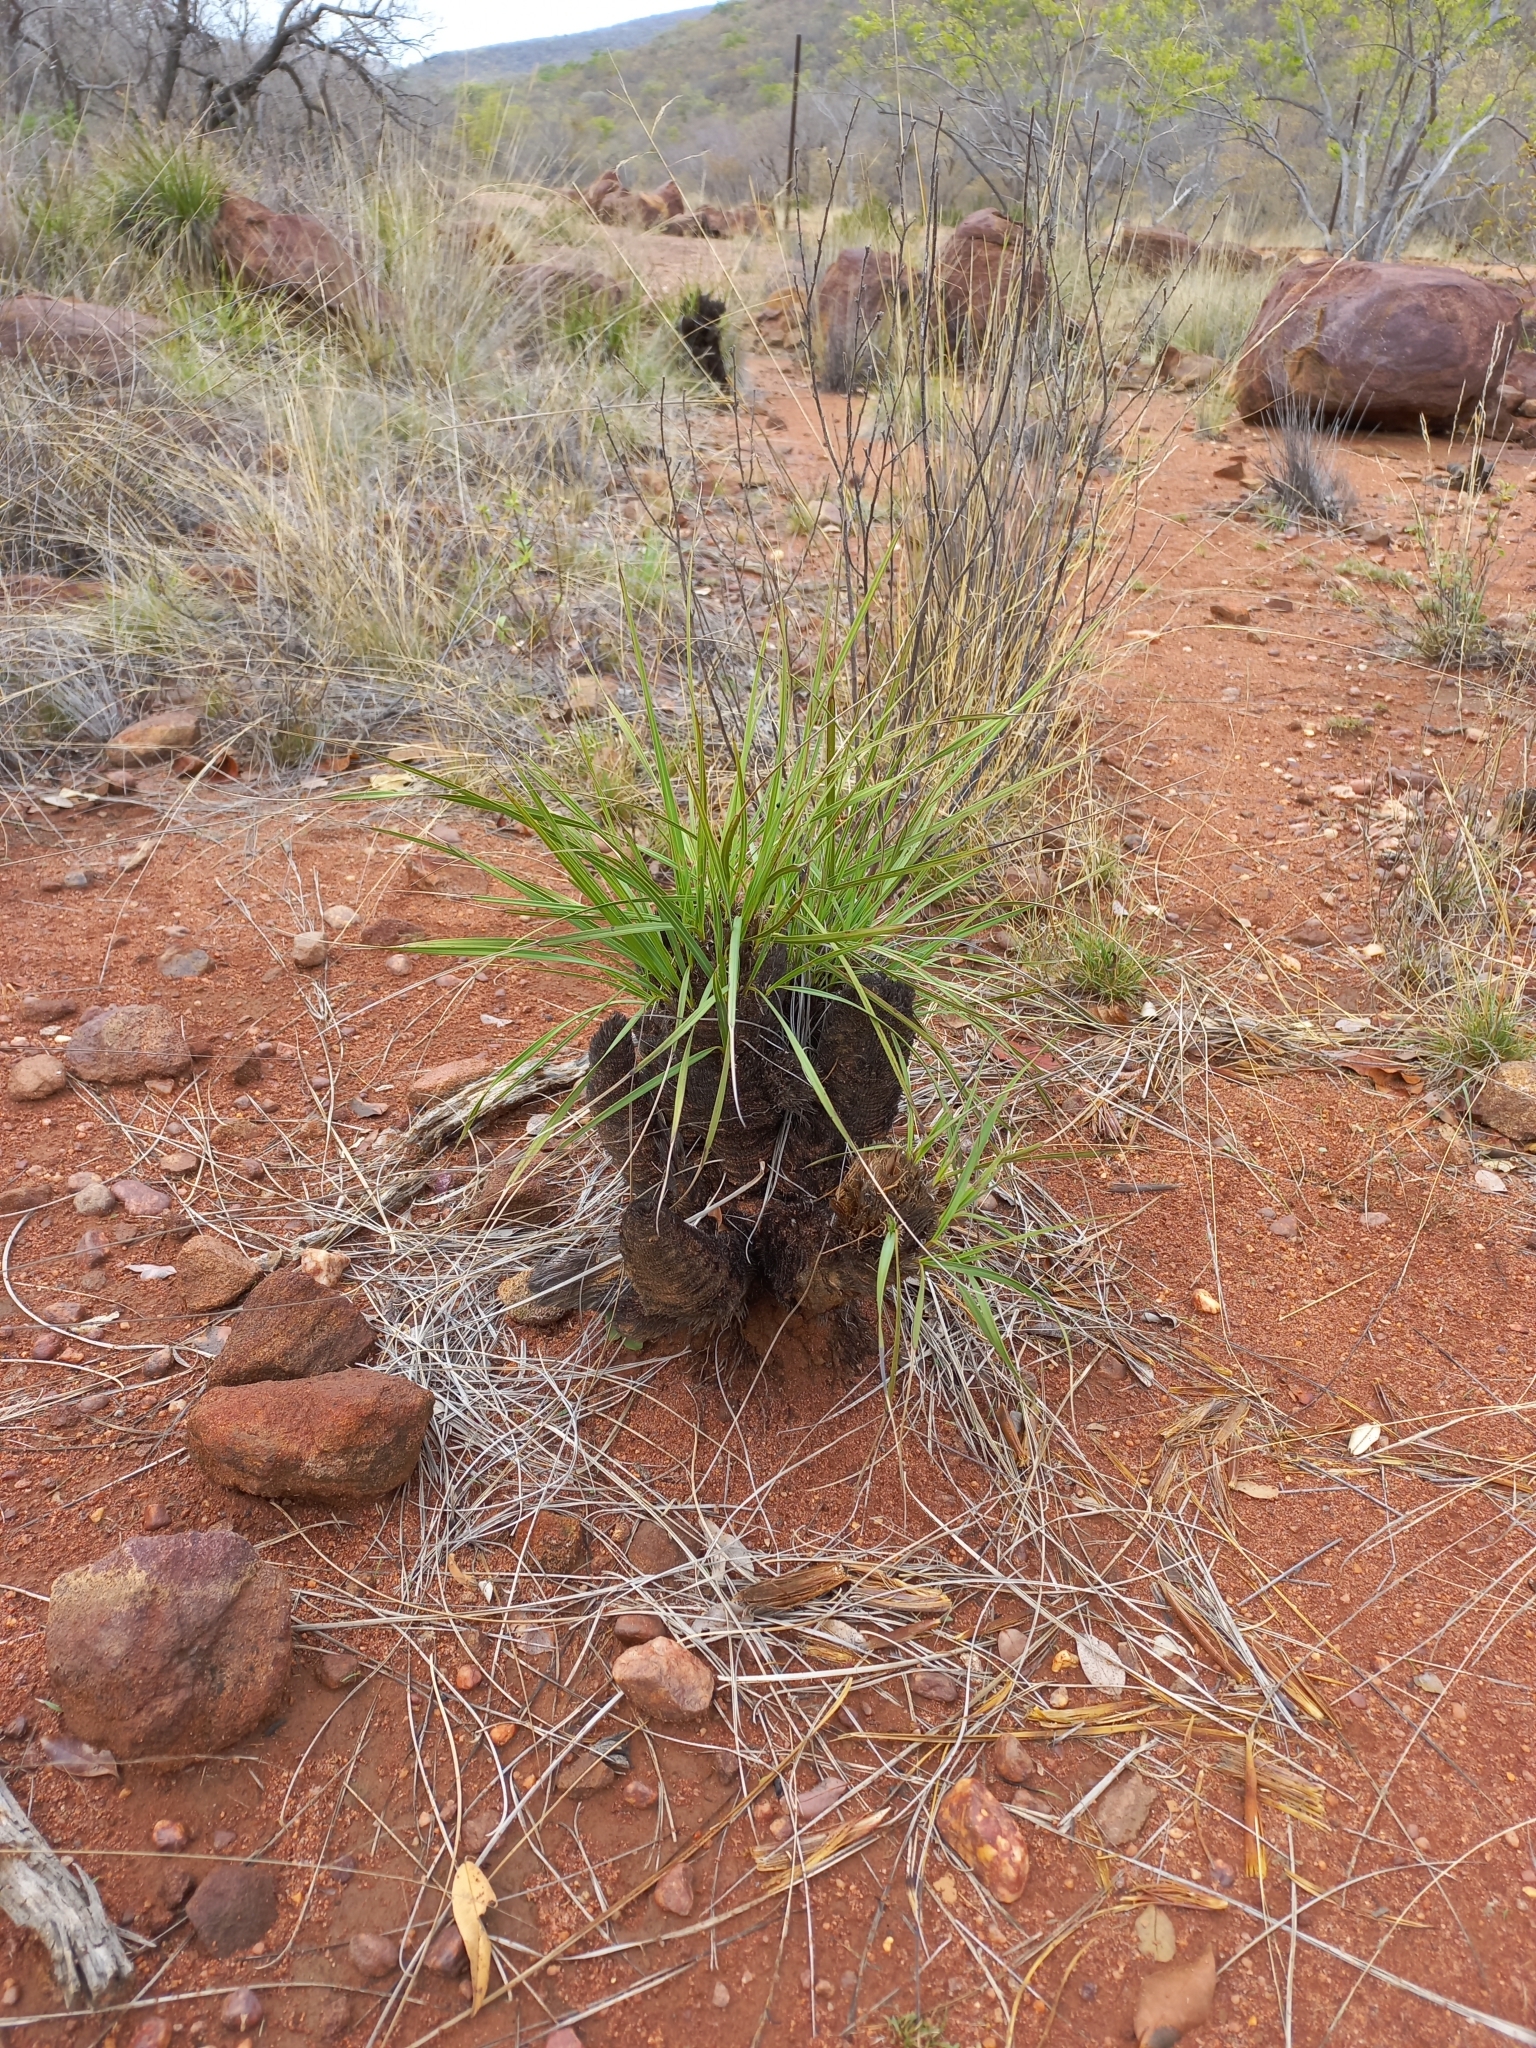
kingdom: Plantae
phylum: Tracheophyta
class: Liliopsida
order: Pandanales
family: Velloziaceae
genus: Xerophyta
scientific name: Xerophyta retinervis
